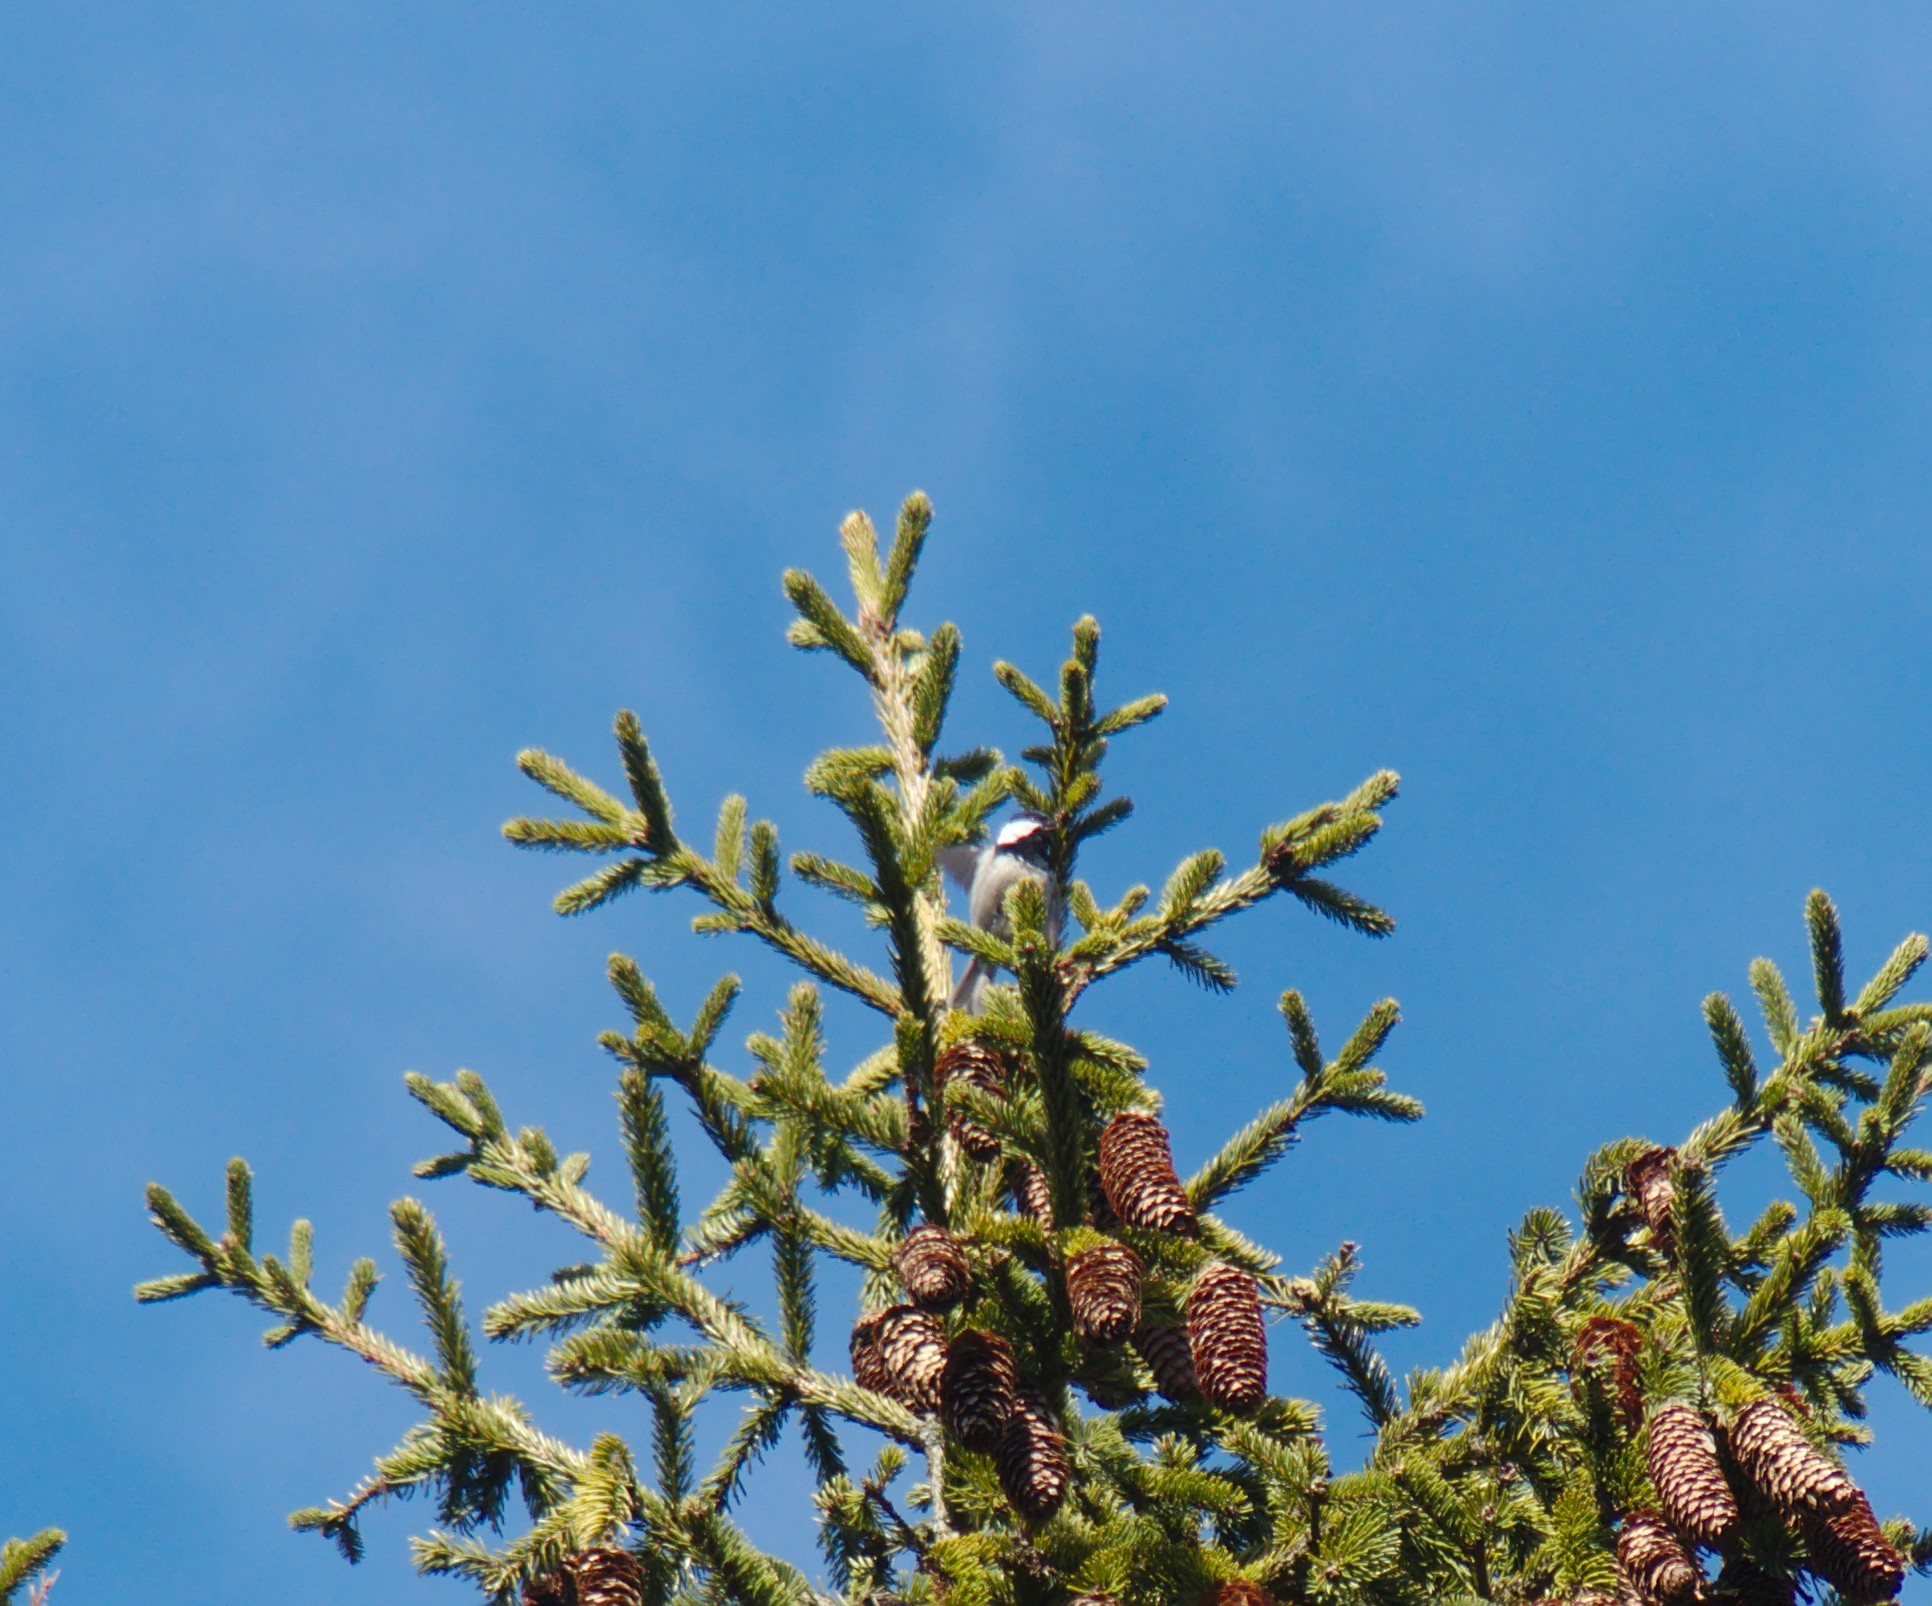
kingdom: Animalia
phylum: Chordata
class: Aves
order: Passeriformes
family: Paridae
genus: Periparus
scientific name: Periparus ater
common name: Coal tit
